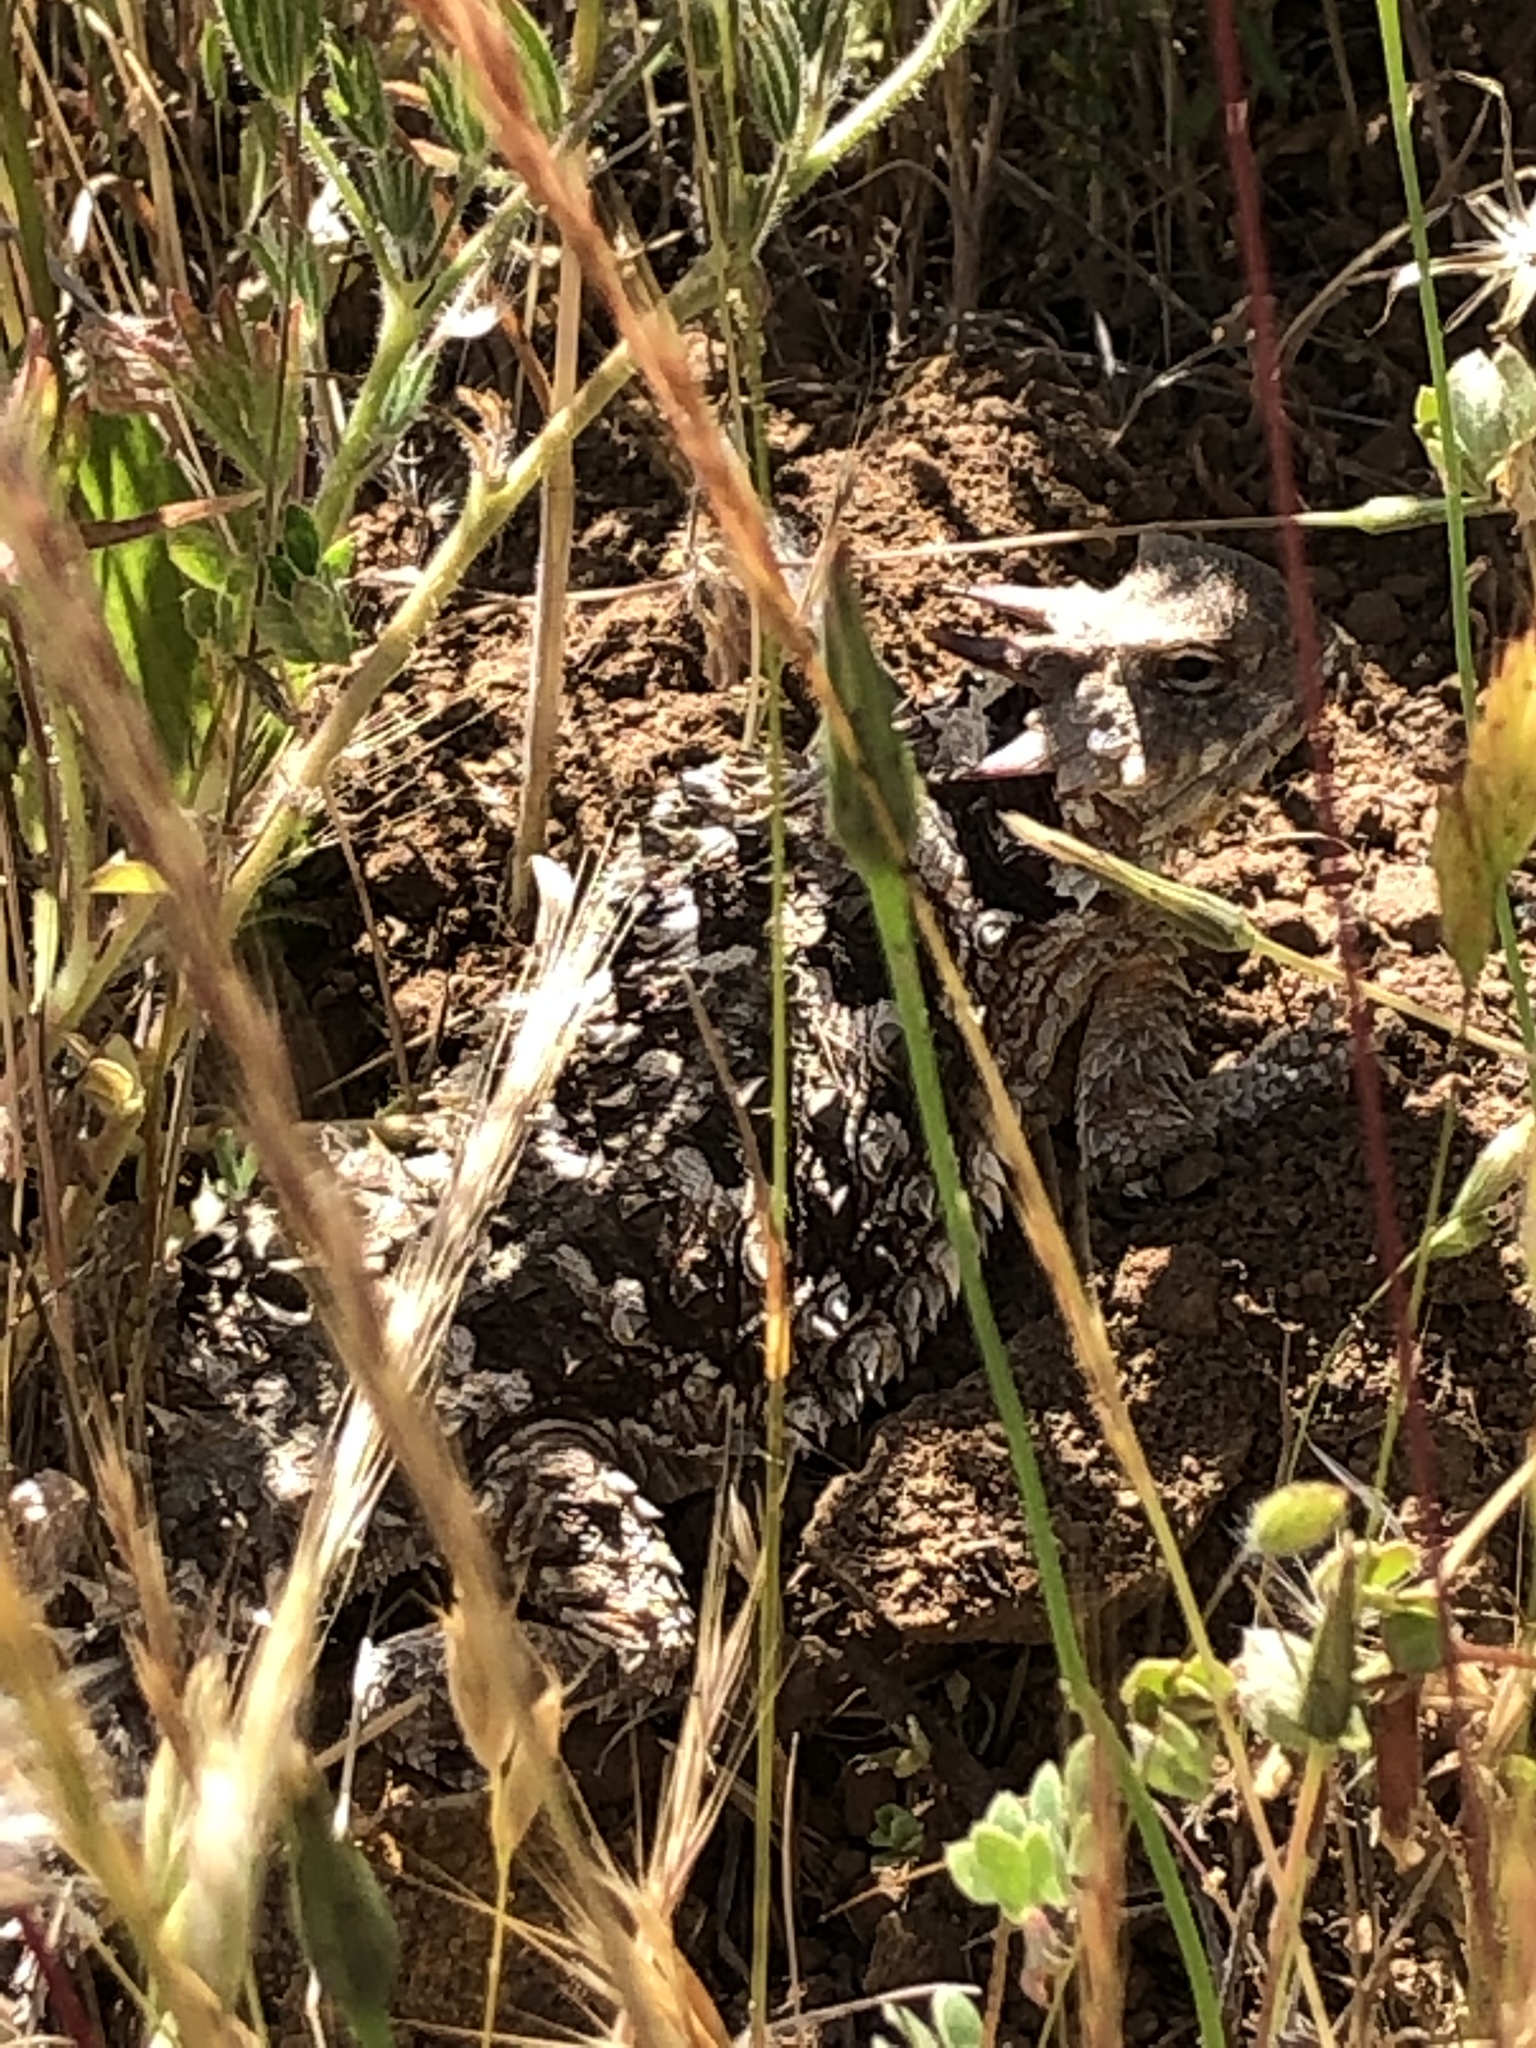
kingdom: Animalia
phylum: Chordata
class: Squamata
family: Phrynosomatidae
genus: Phrynosoma
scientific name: Phrynosoma blainvillii
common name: San diego horned lizard
